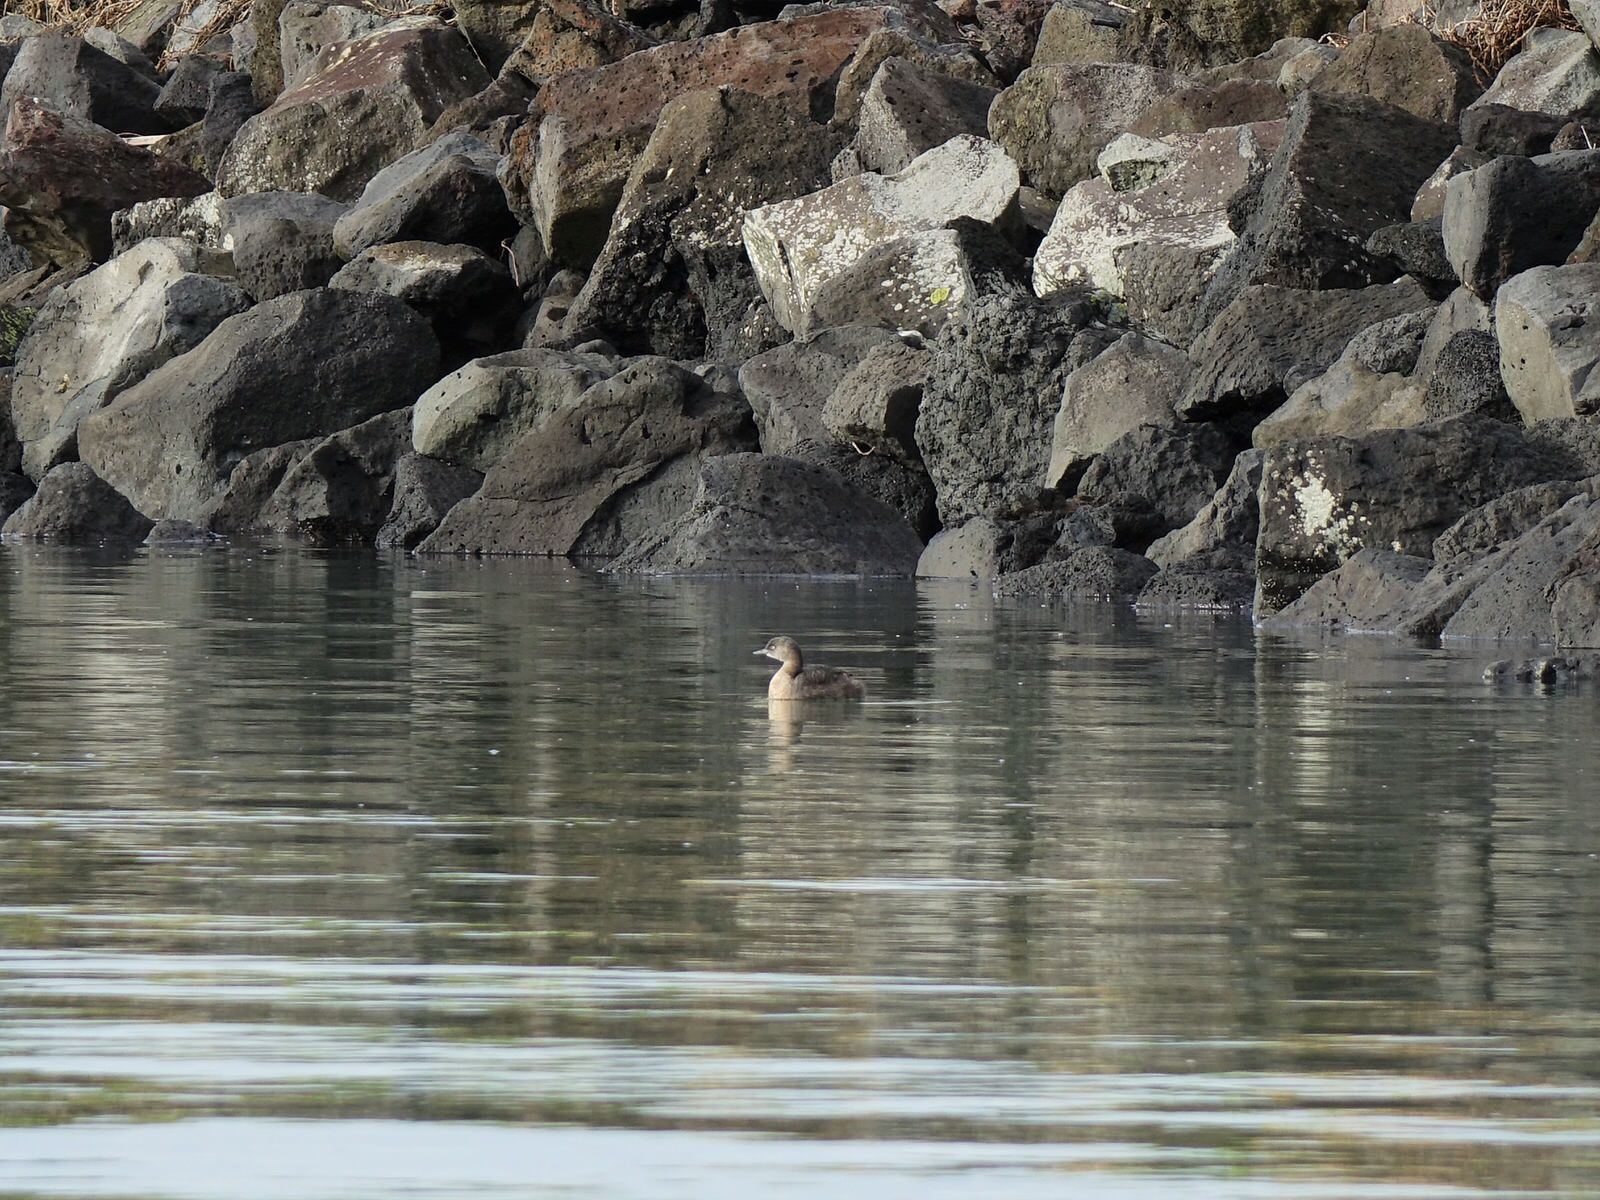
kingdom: Animalia
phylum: Chordata
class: Aves
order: Podicipediformes
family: Podicipedidae
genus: Poliocephalus
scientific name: Poliocephalus rufopectus
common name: New zealand grebe
